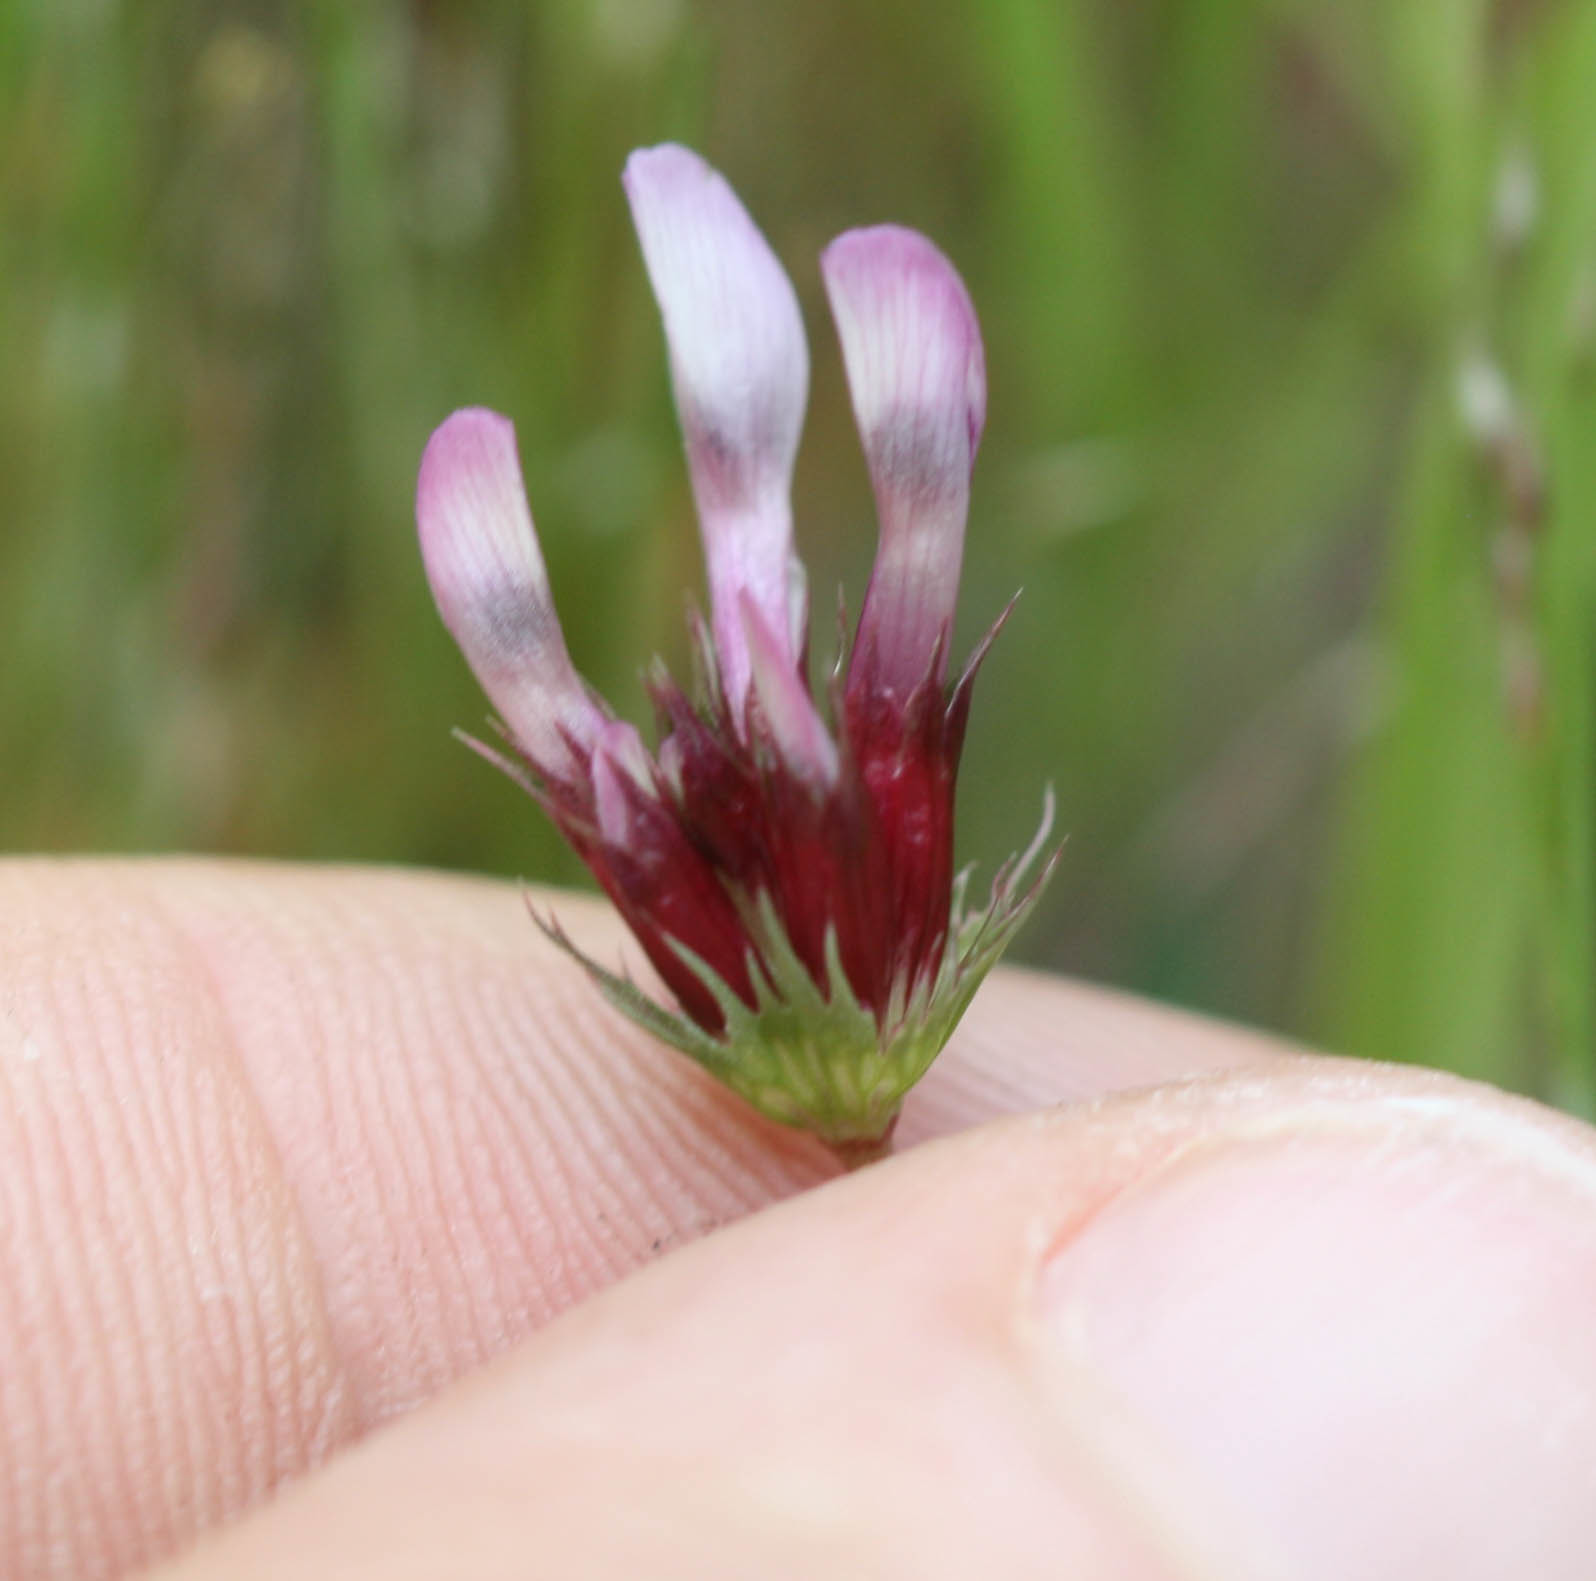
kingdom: Plantae
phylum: Tracheophyta
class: Magnoliopsida
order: Fabales
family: Fabaceae
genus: Trifolium
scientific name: Trifolium oliganthum
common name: Few-flower clover
